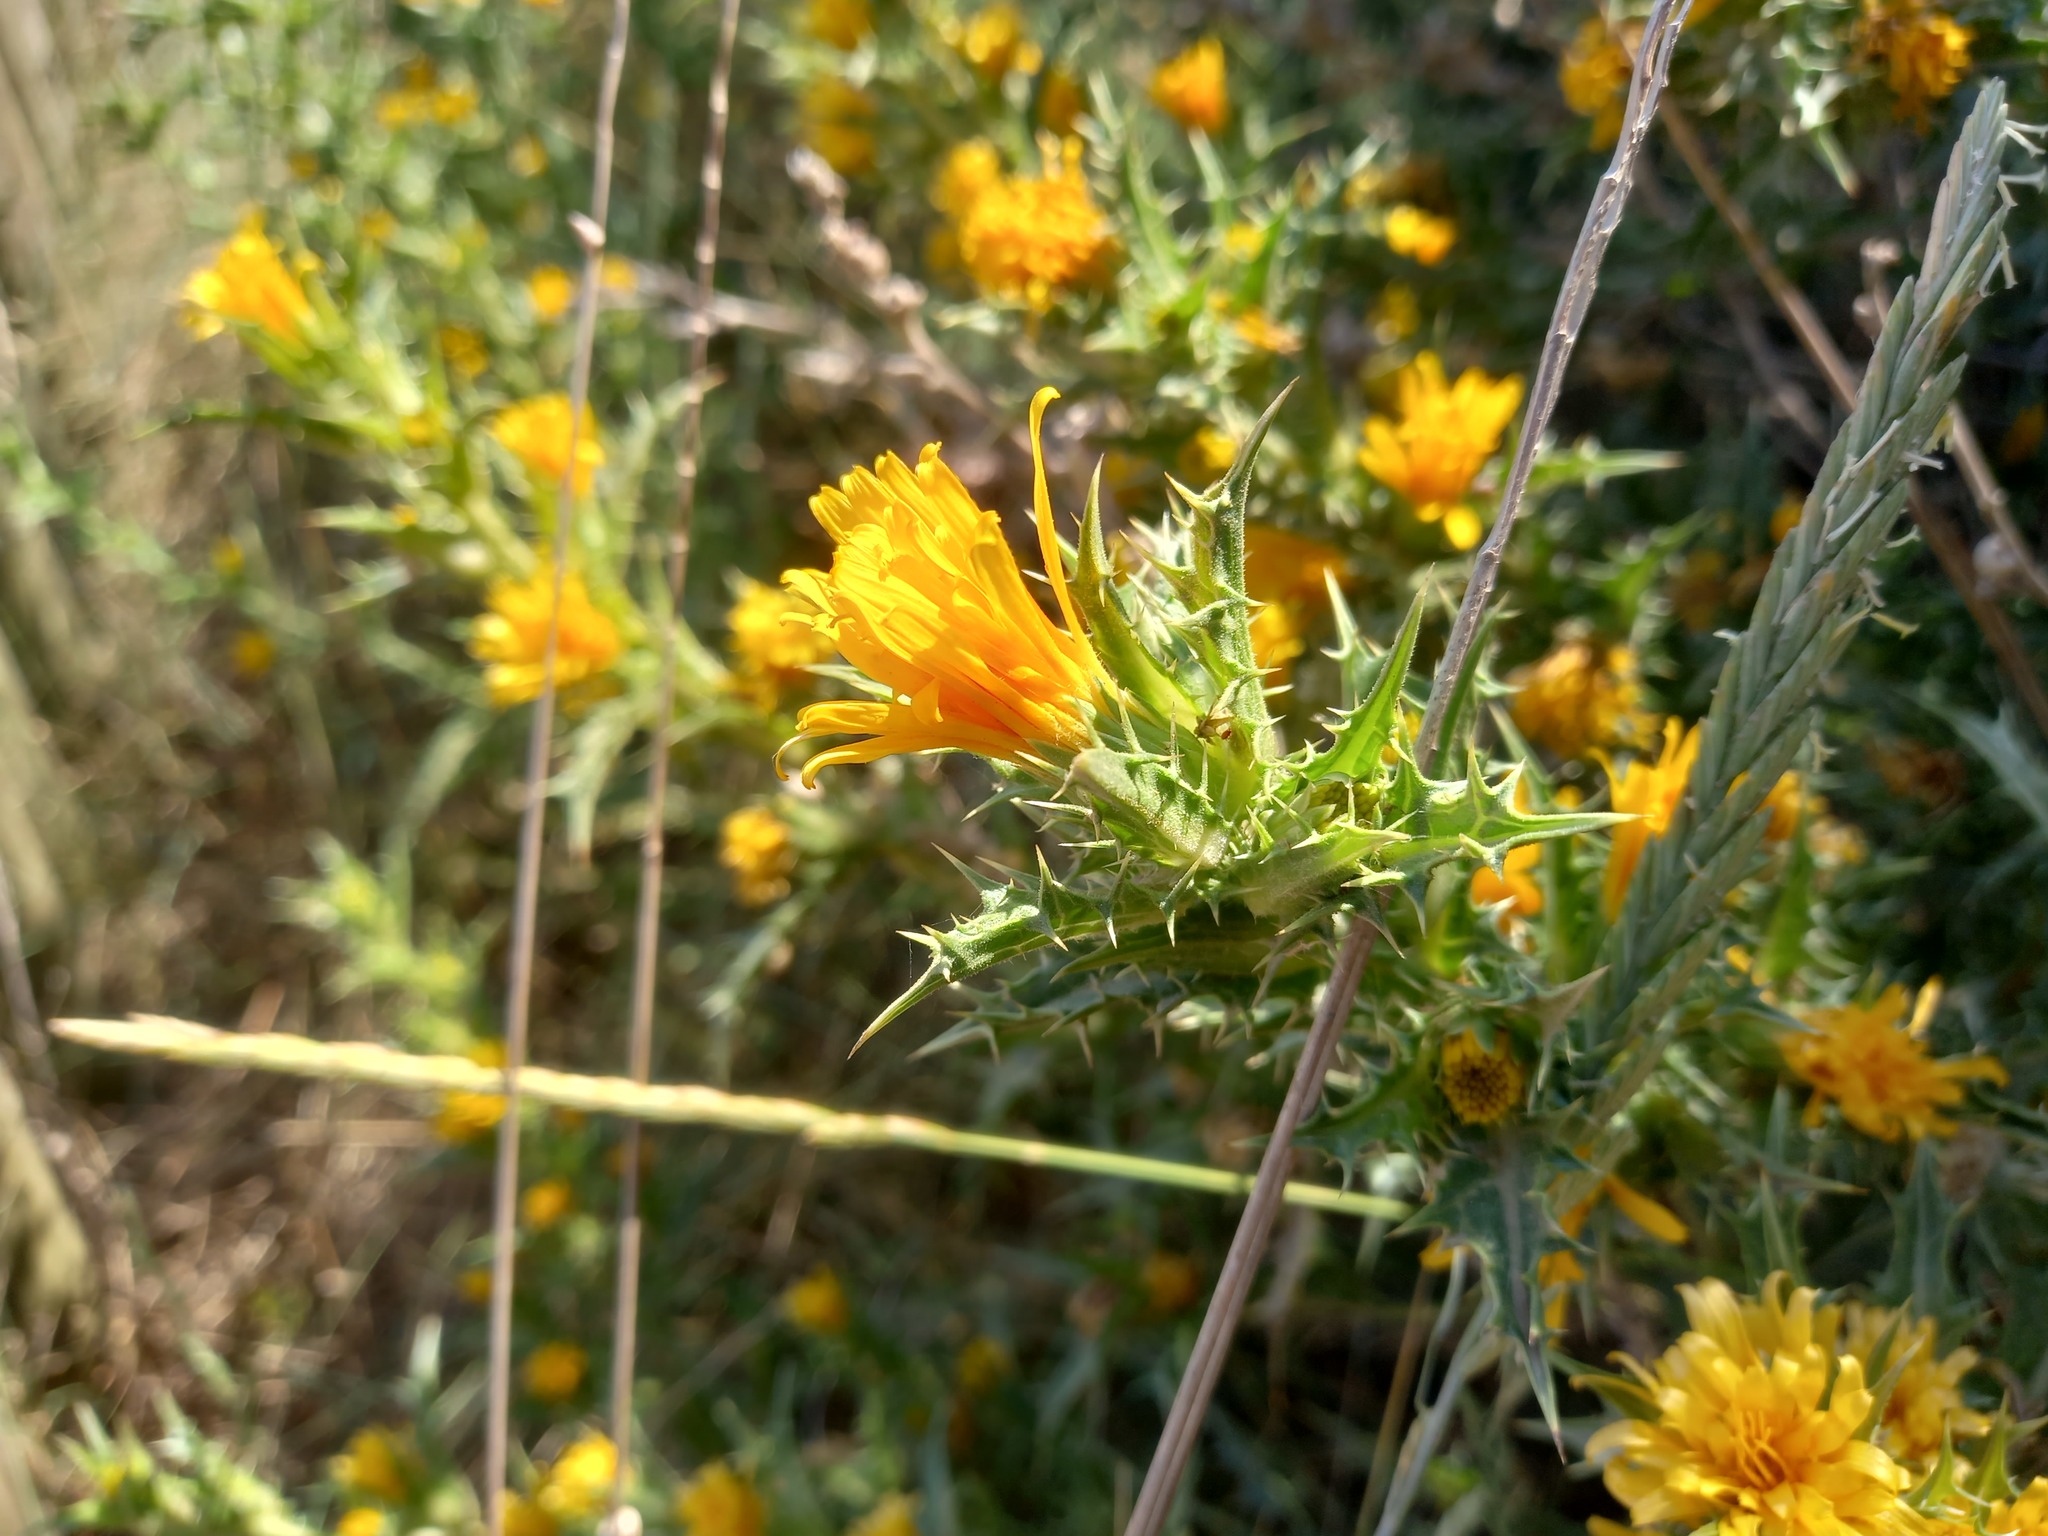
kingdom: Plantae
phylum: Tracheophyta
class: Magnoliopsida
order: Asterales
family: Asteraceae
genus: Scolymus
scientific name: Scolymus hispanicus
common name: Golden thistle
